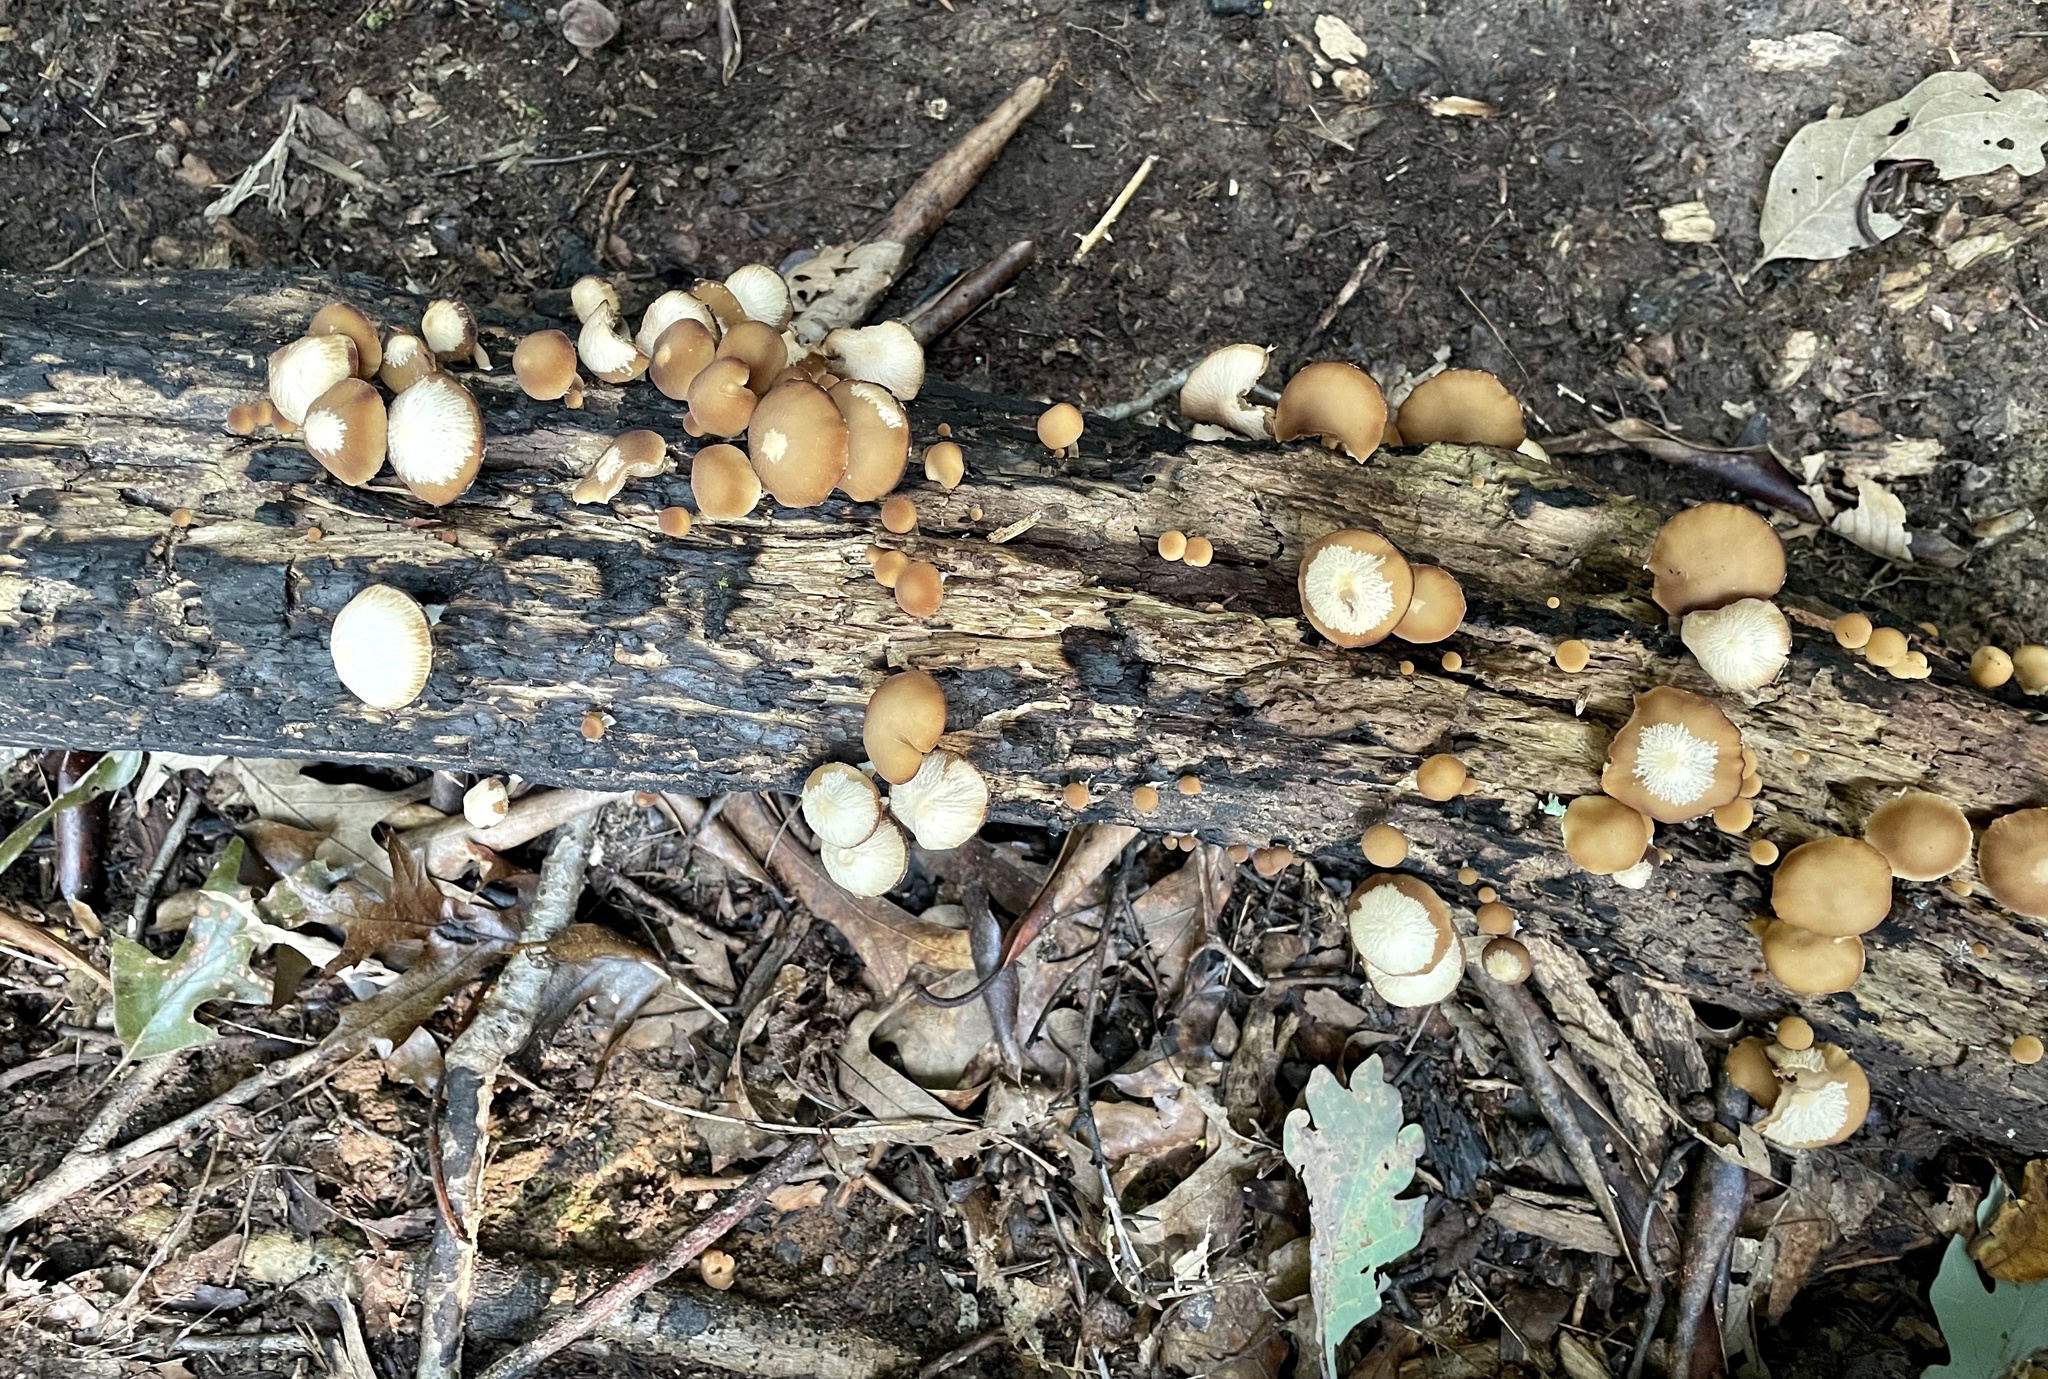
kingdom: Fungi
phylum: Basidiomycota
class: Agaricomycetes
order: Agaricales
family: Psathyrellaceae
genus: Psathyrella
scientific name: Psathyrella fuscifolia
